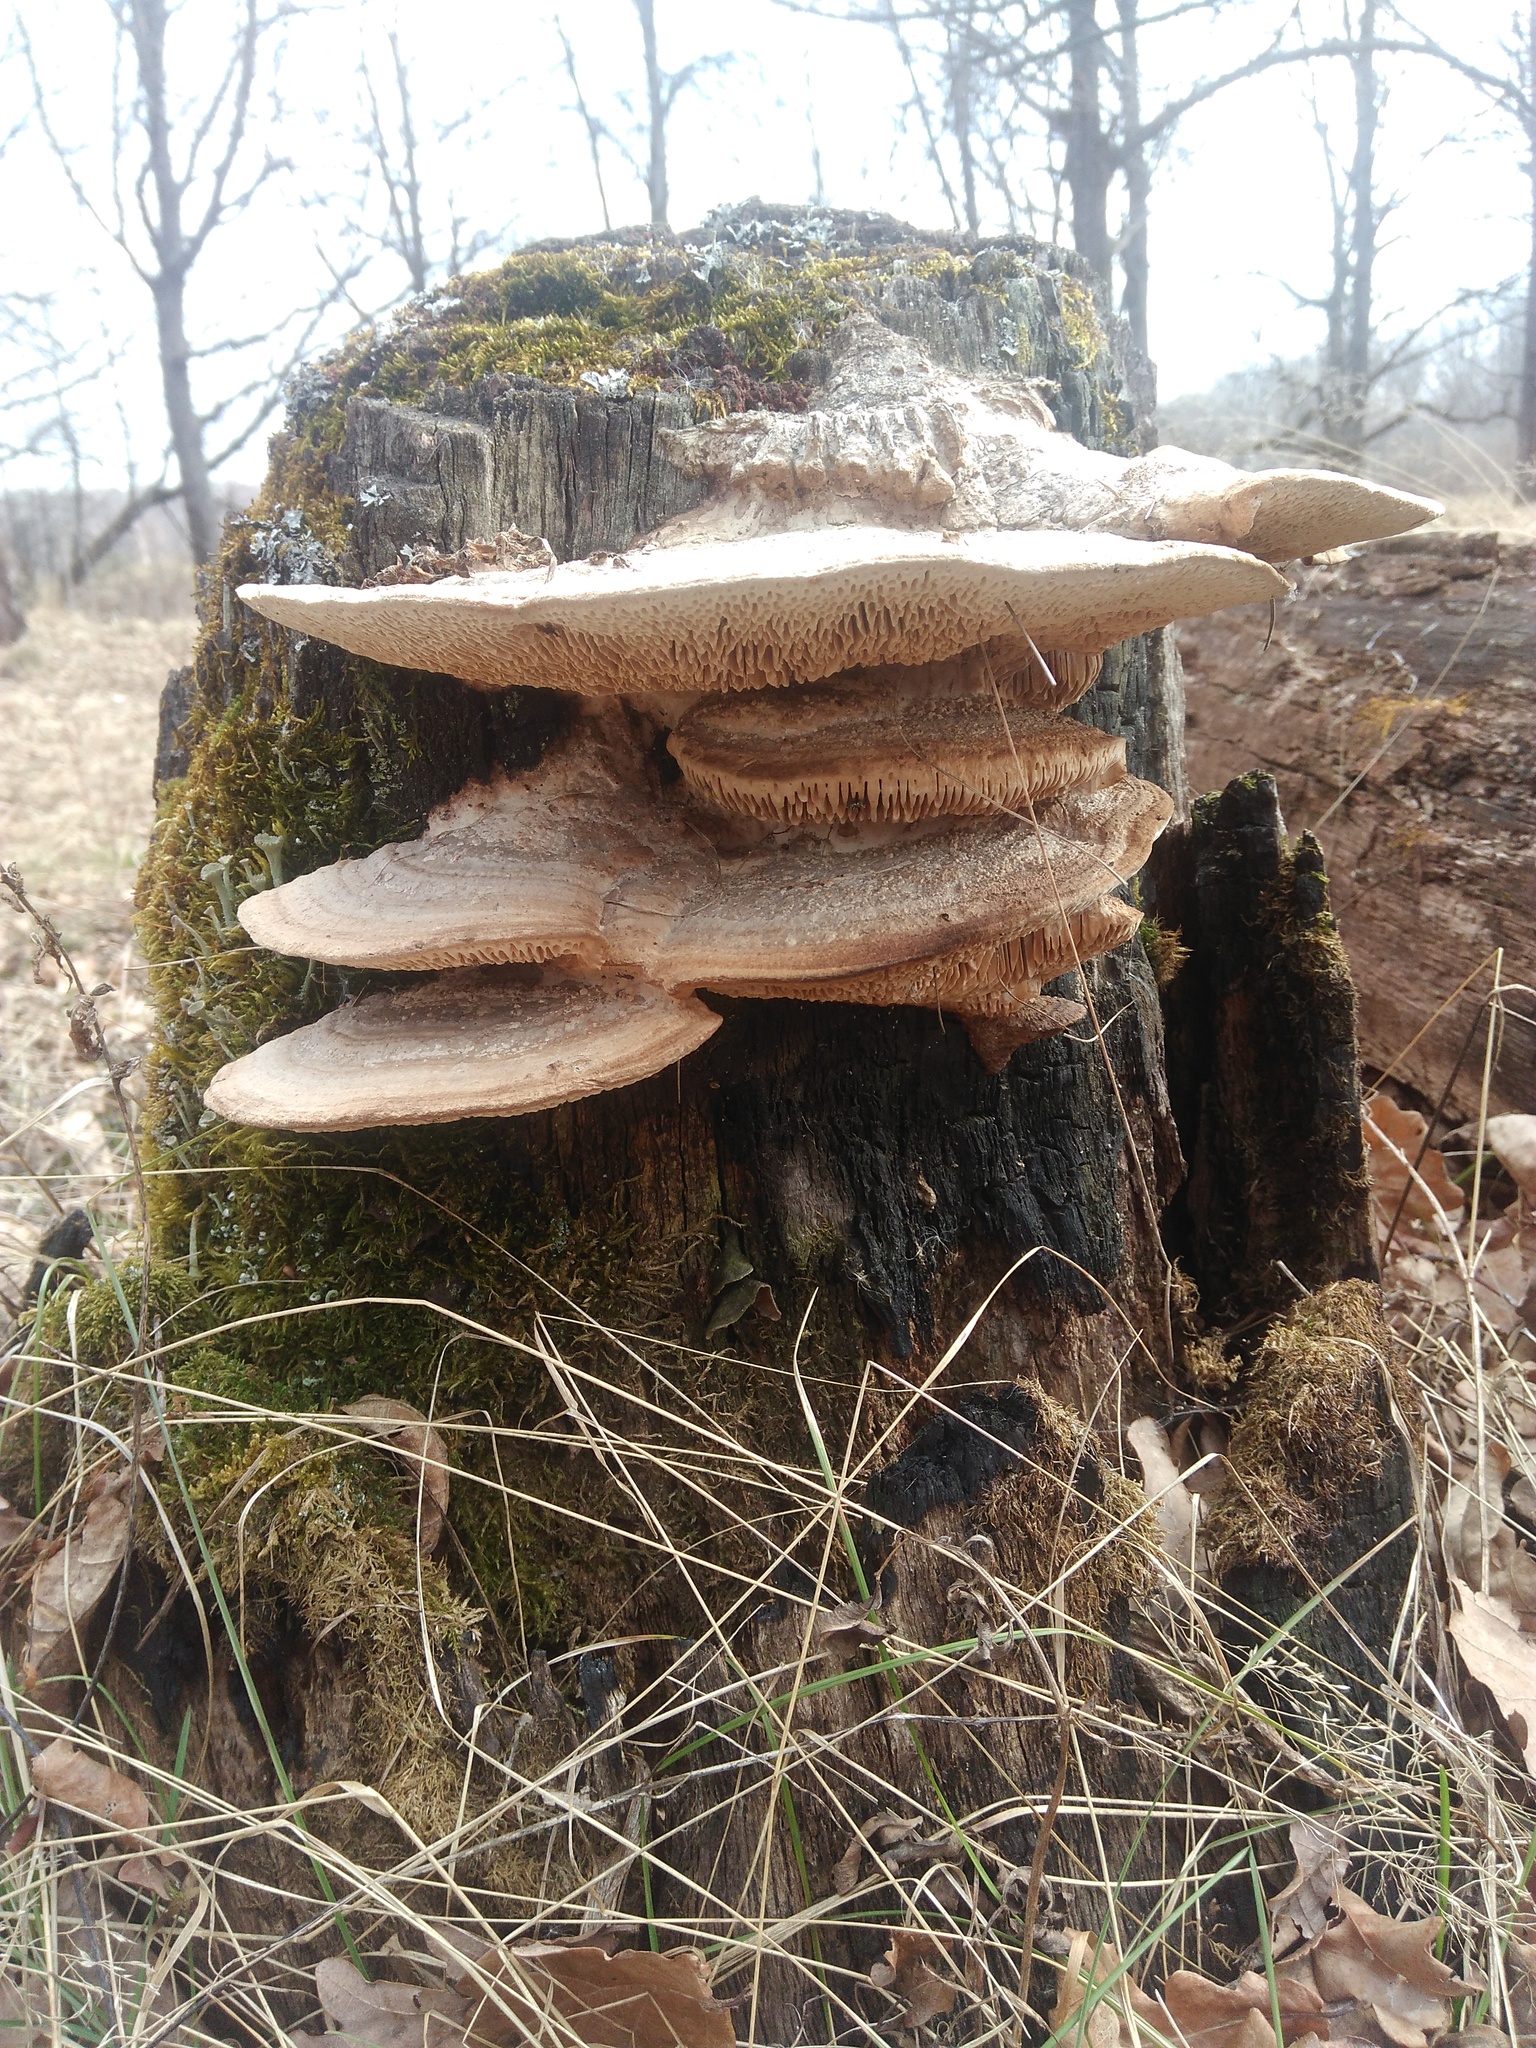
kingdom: Fungi
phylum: Basidiomycota
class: Agaricomycetes
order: Polyporales
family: Fomitopsidaceae
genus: Fomitopsis
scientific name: Fomitopsis
